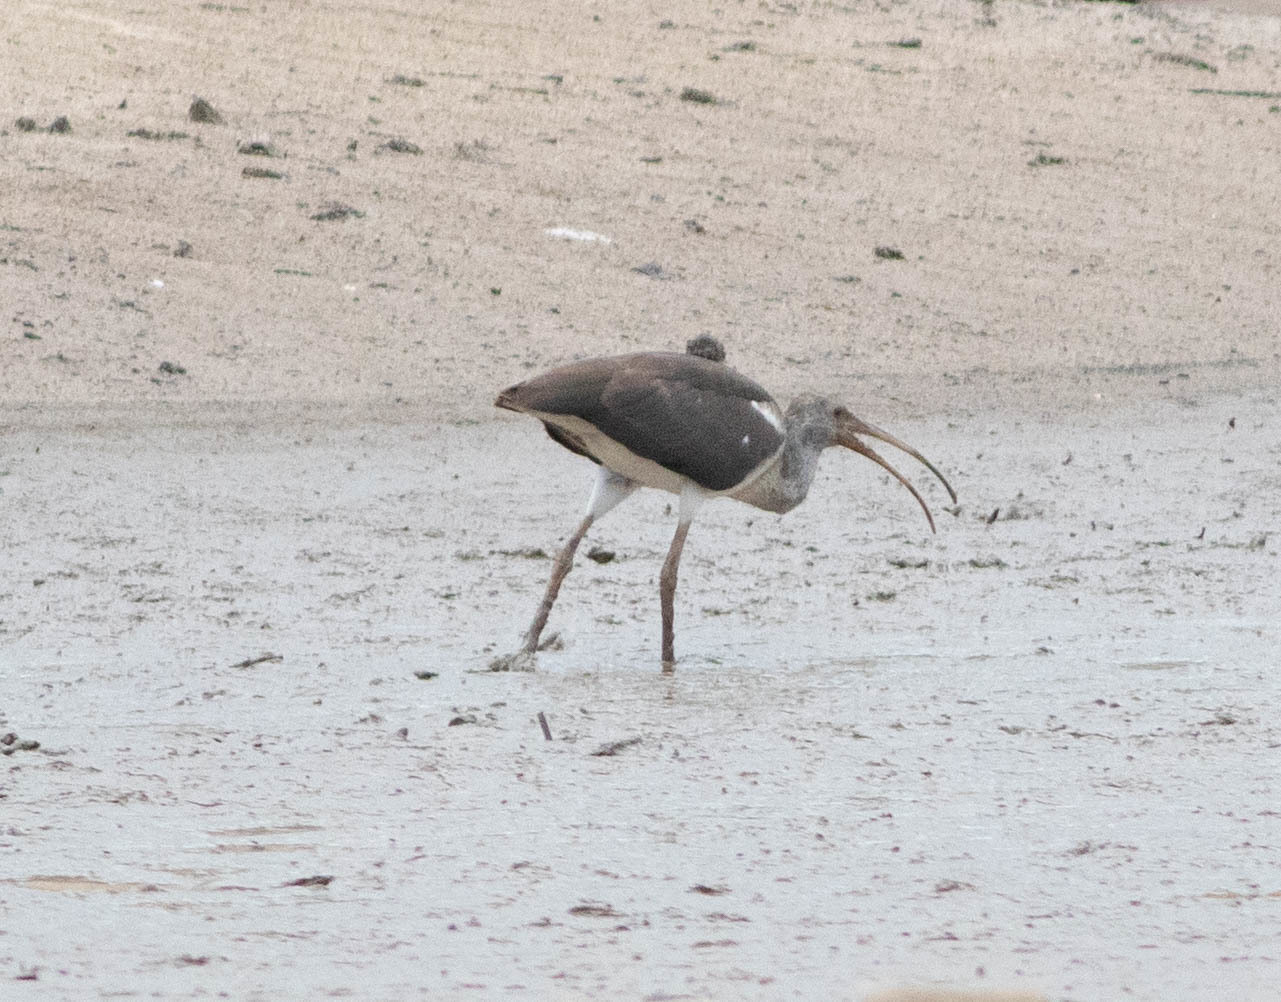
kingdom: Animalia
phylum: Chordata
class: Aves
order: Pelecaniformes
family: Threskiornithidae
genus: Eudocimus
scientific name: Eudocimus albus
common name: White ibis
